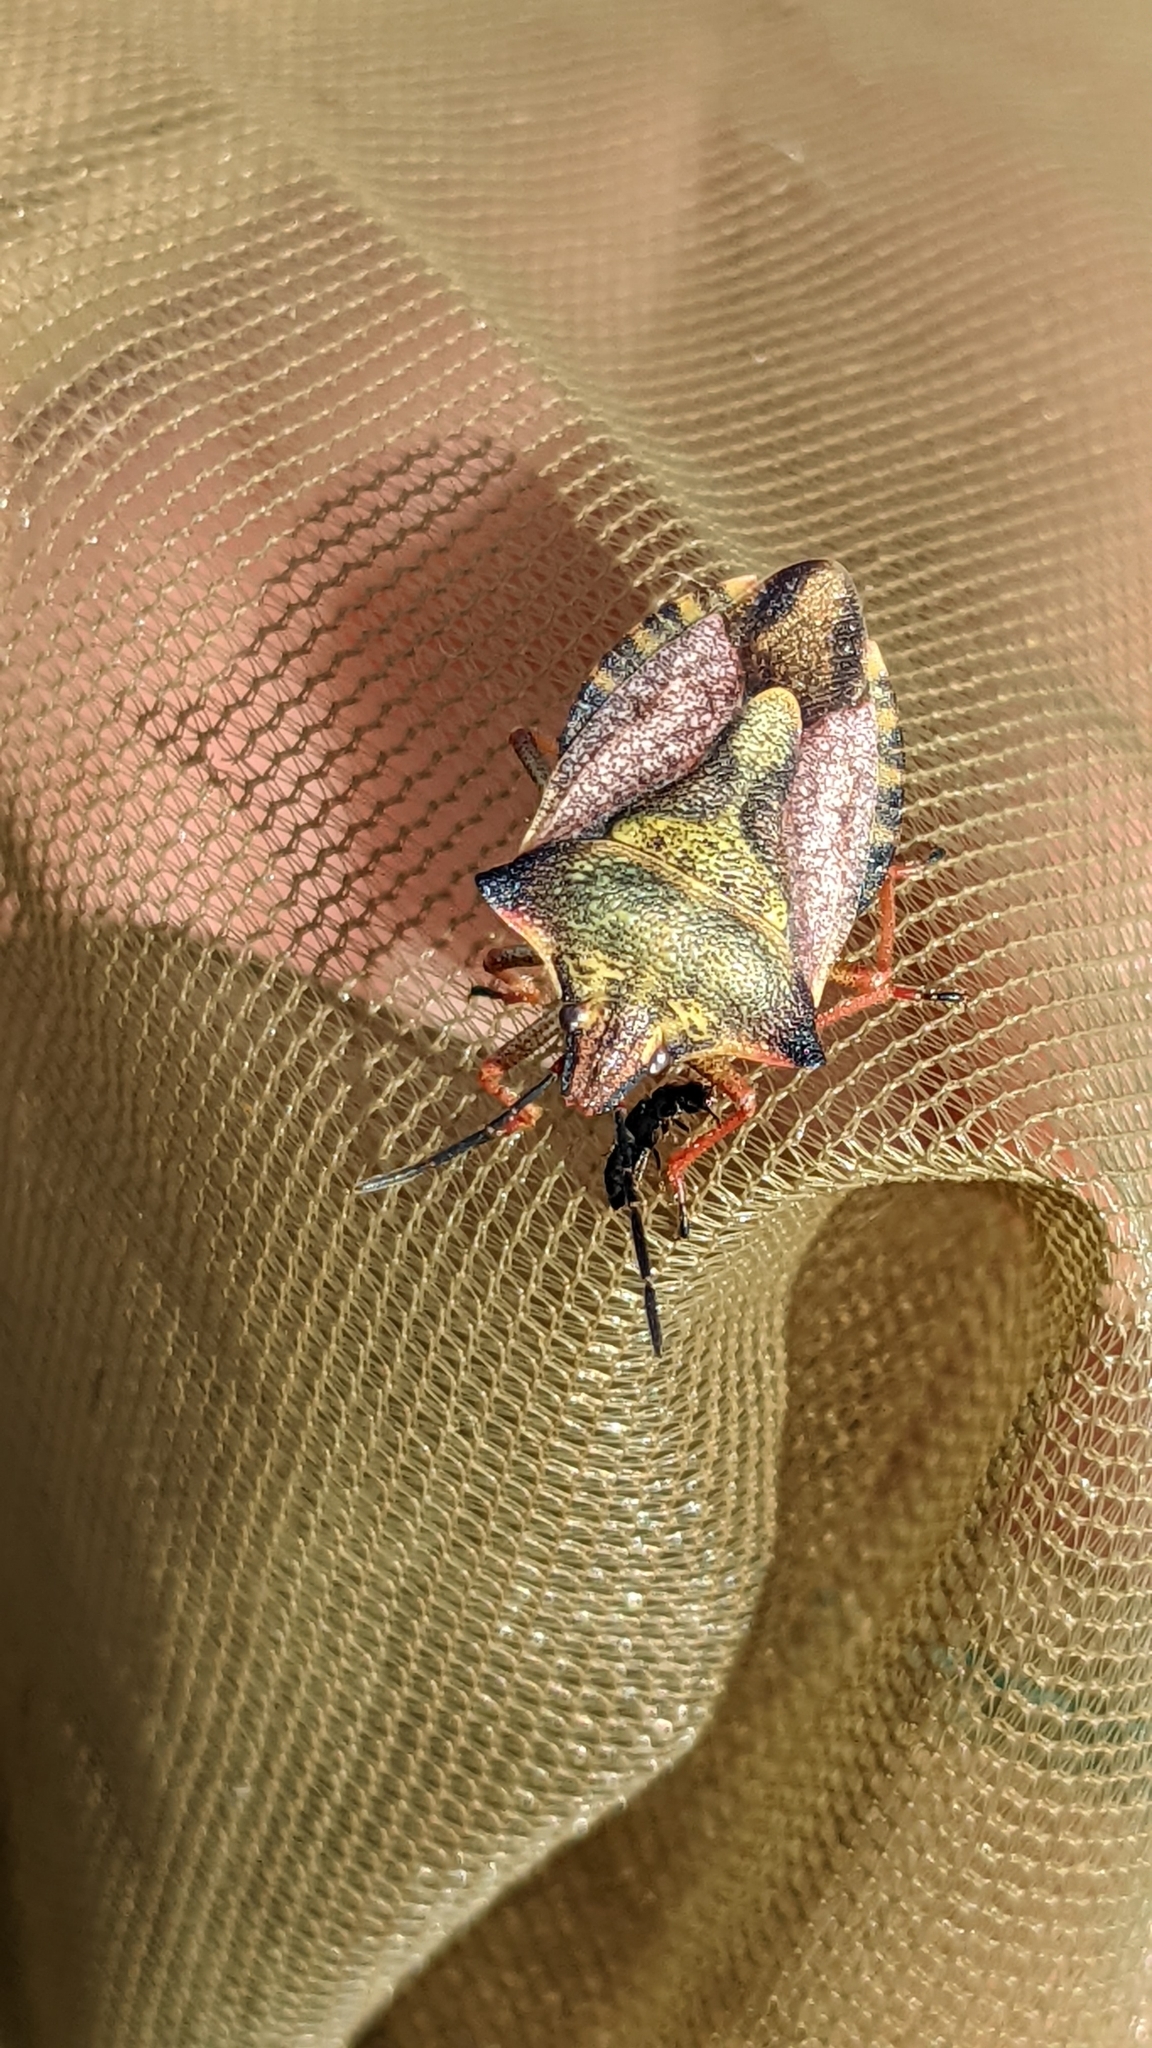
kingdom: Animalia
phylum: Arthropoda
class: Insecta
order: Hemiptera
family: Pentatomidae
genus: Carpocoris
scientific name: Carpocoris mediterraneus
